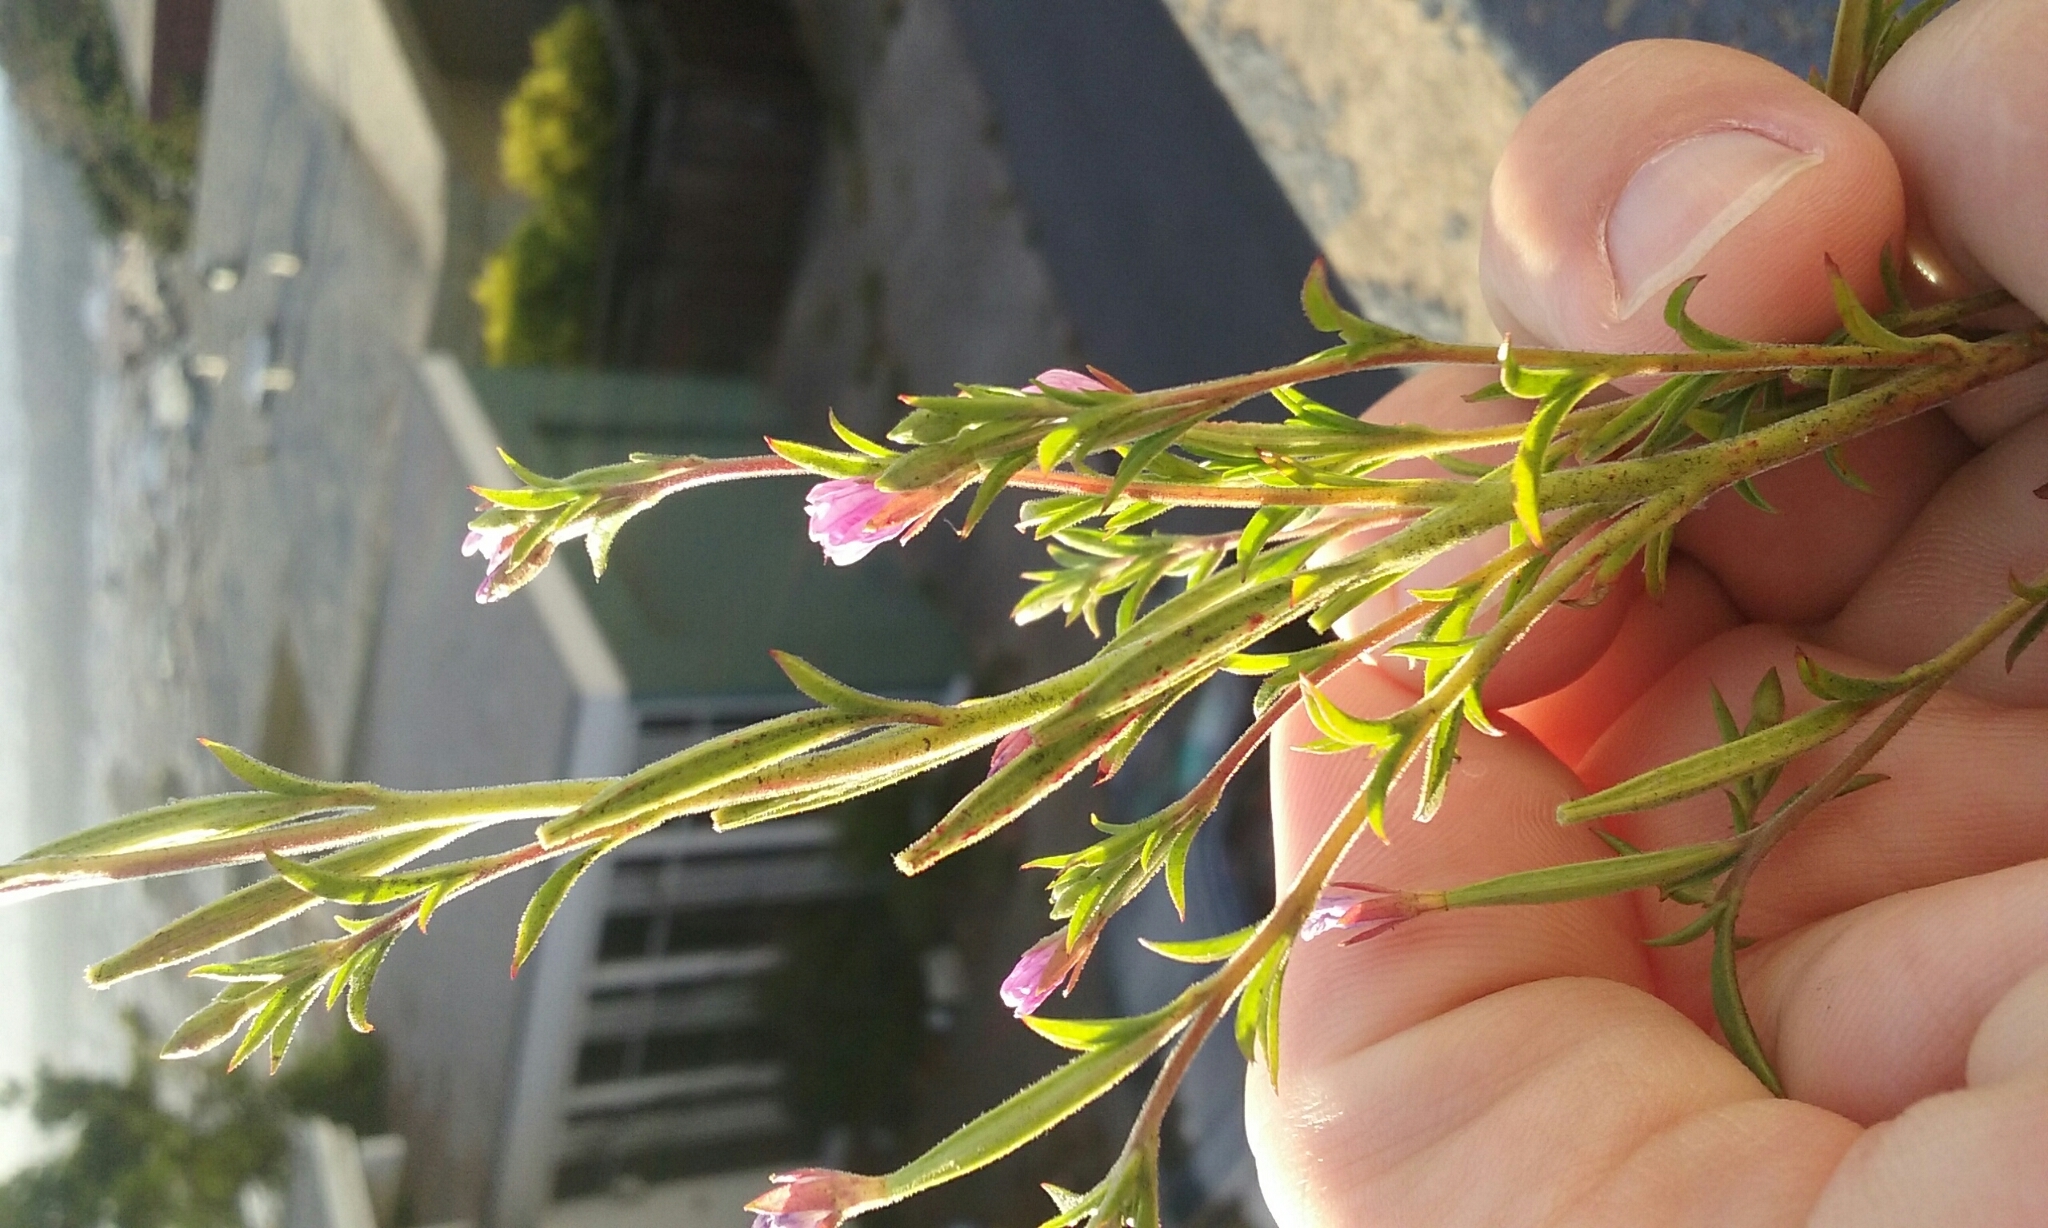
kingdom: Plantae
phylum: Tracheophyta
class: Magnoliopsida
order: Myrtales
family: Onagraceae
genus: Epilobium
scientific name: Epilobium brachycarpum
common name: Annual willowherb
